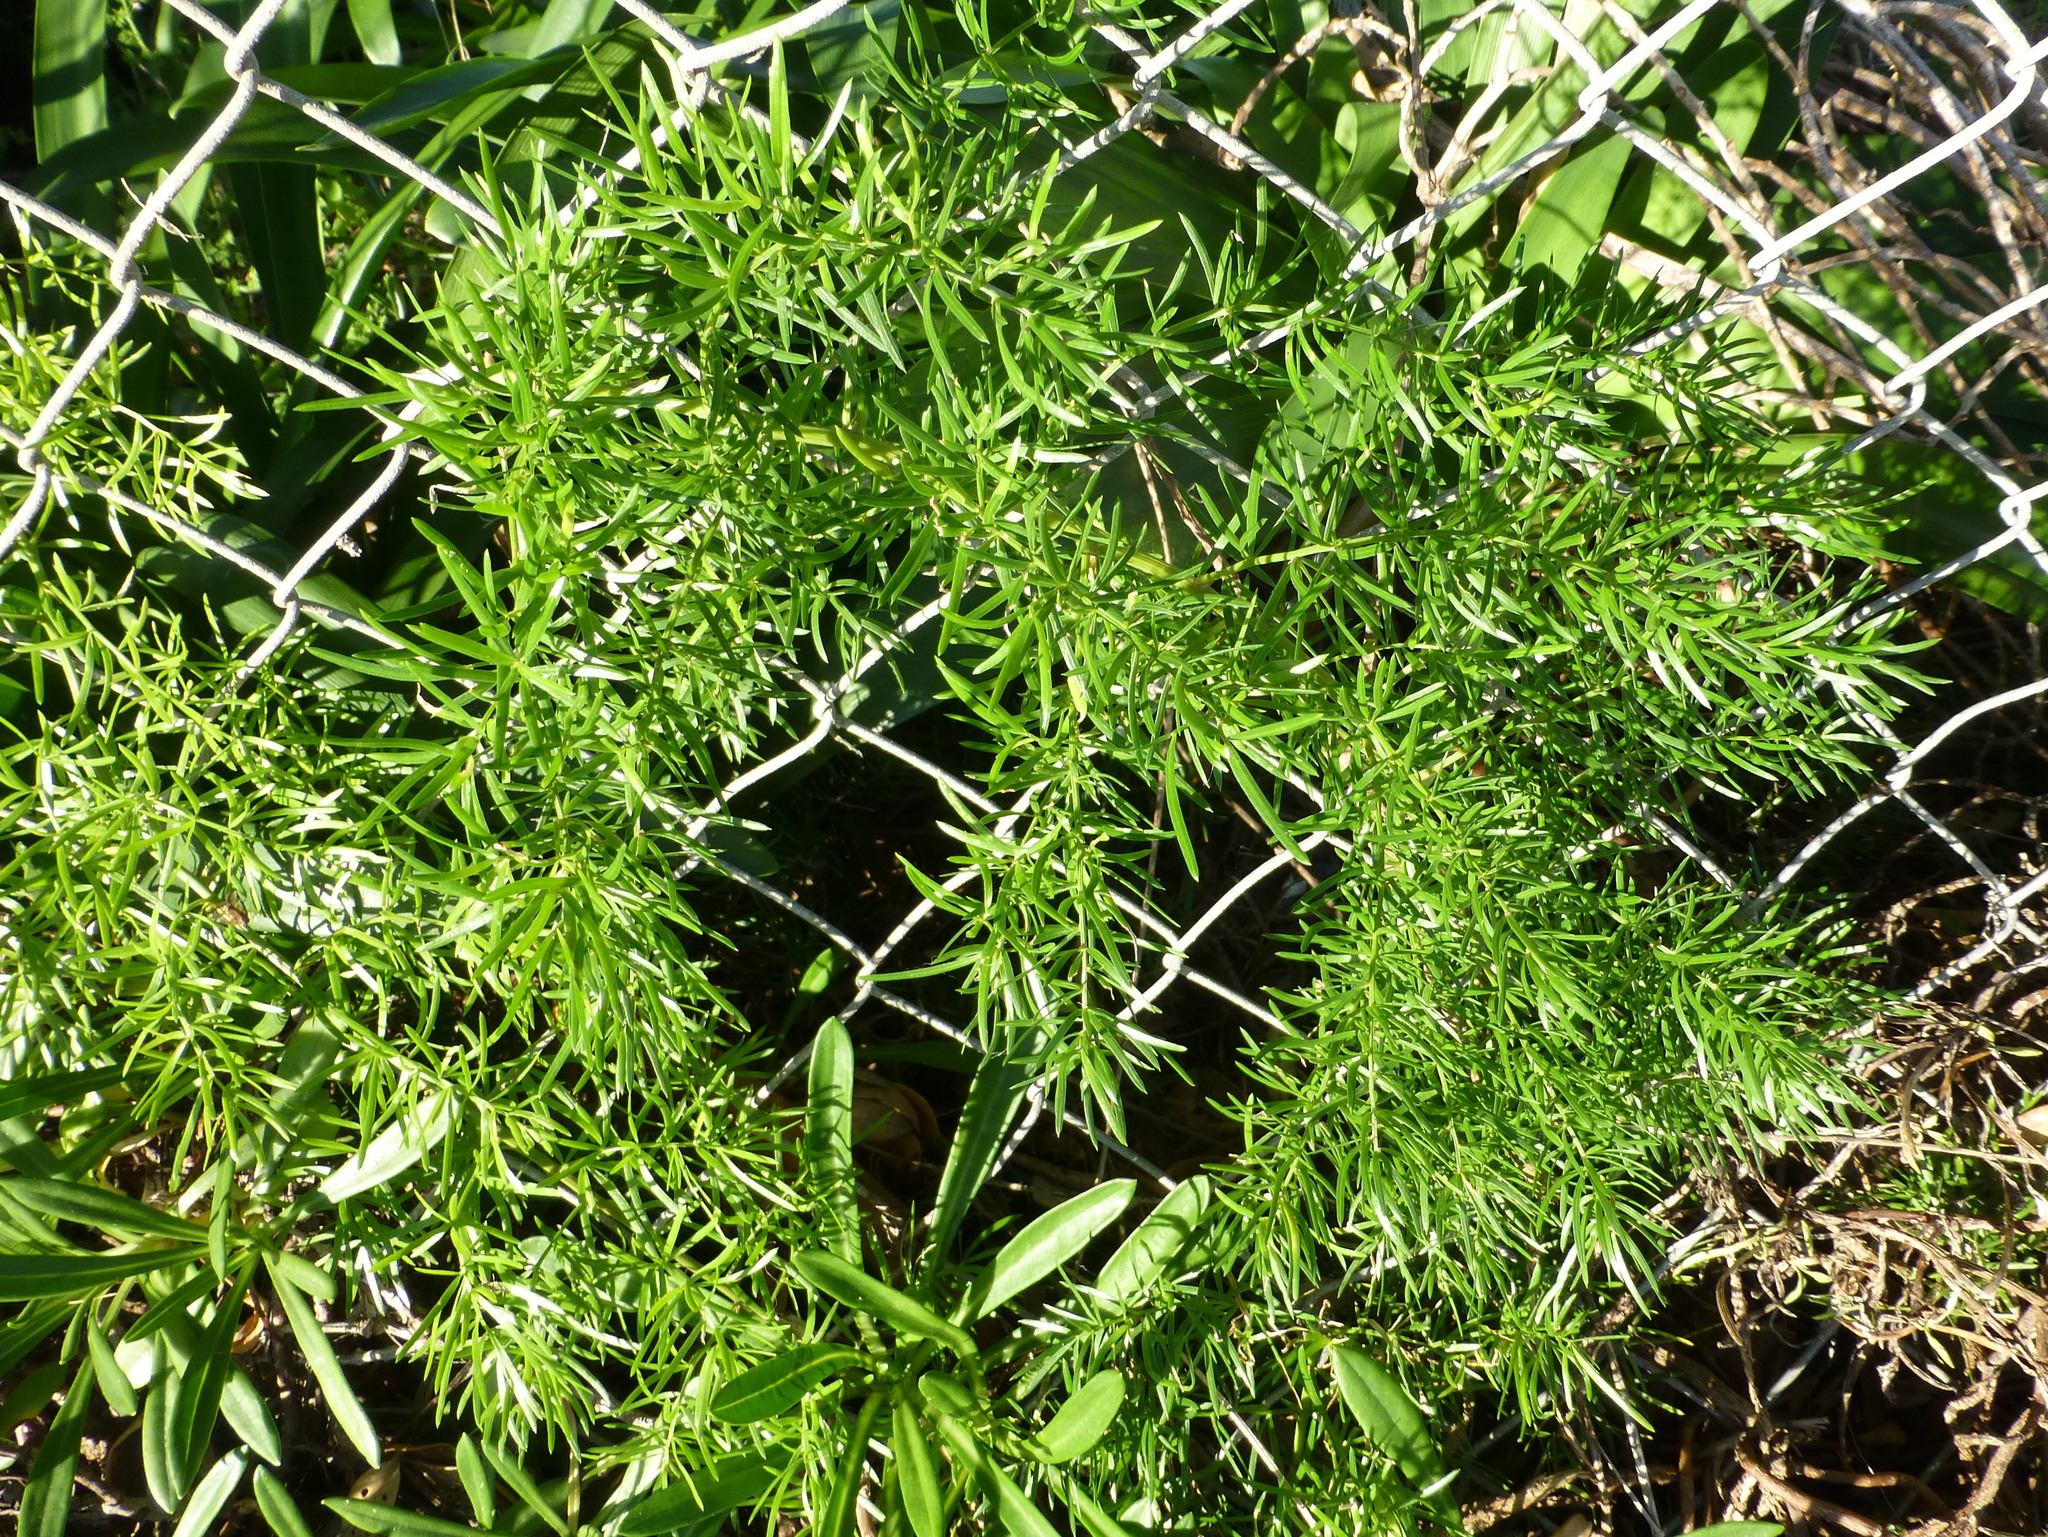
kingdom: Plantae
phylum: Tracheophyta
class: Liliopsida
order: Asparagales
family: Asparagaceae
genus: Asparagus
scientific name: Asparagus aethiopicus
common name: Sprenger's asparagus fern
